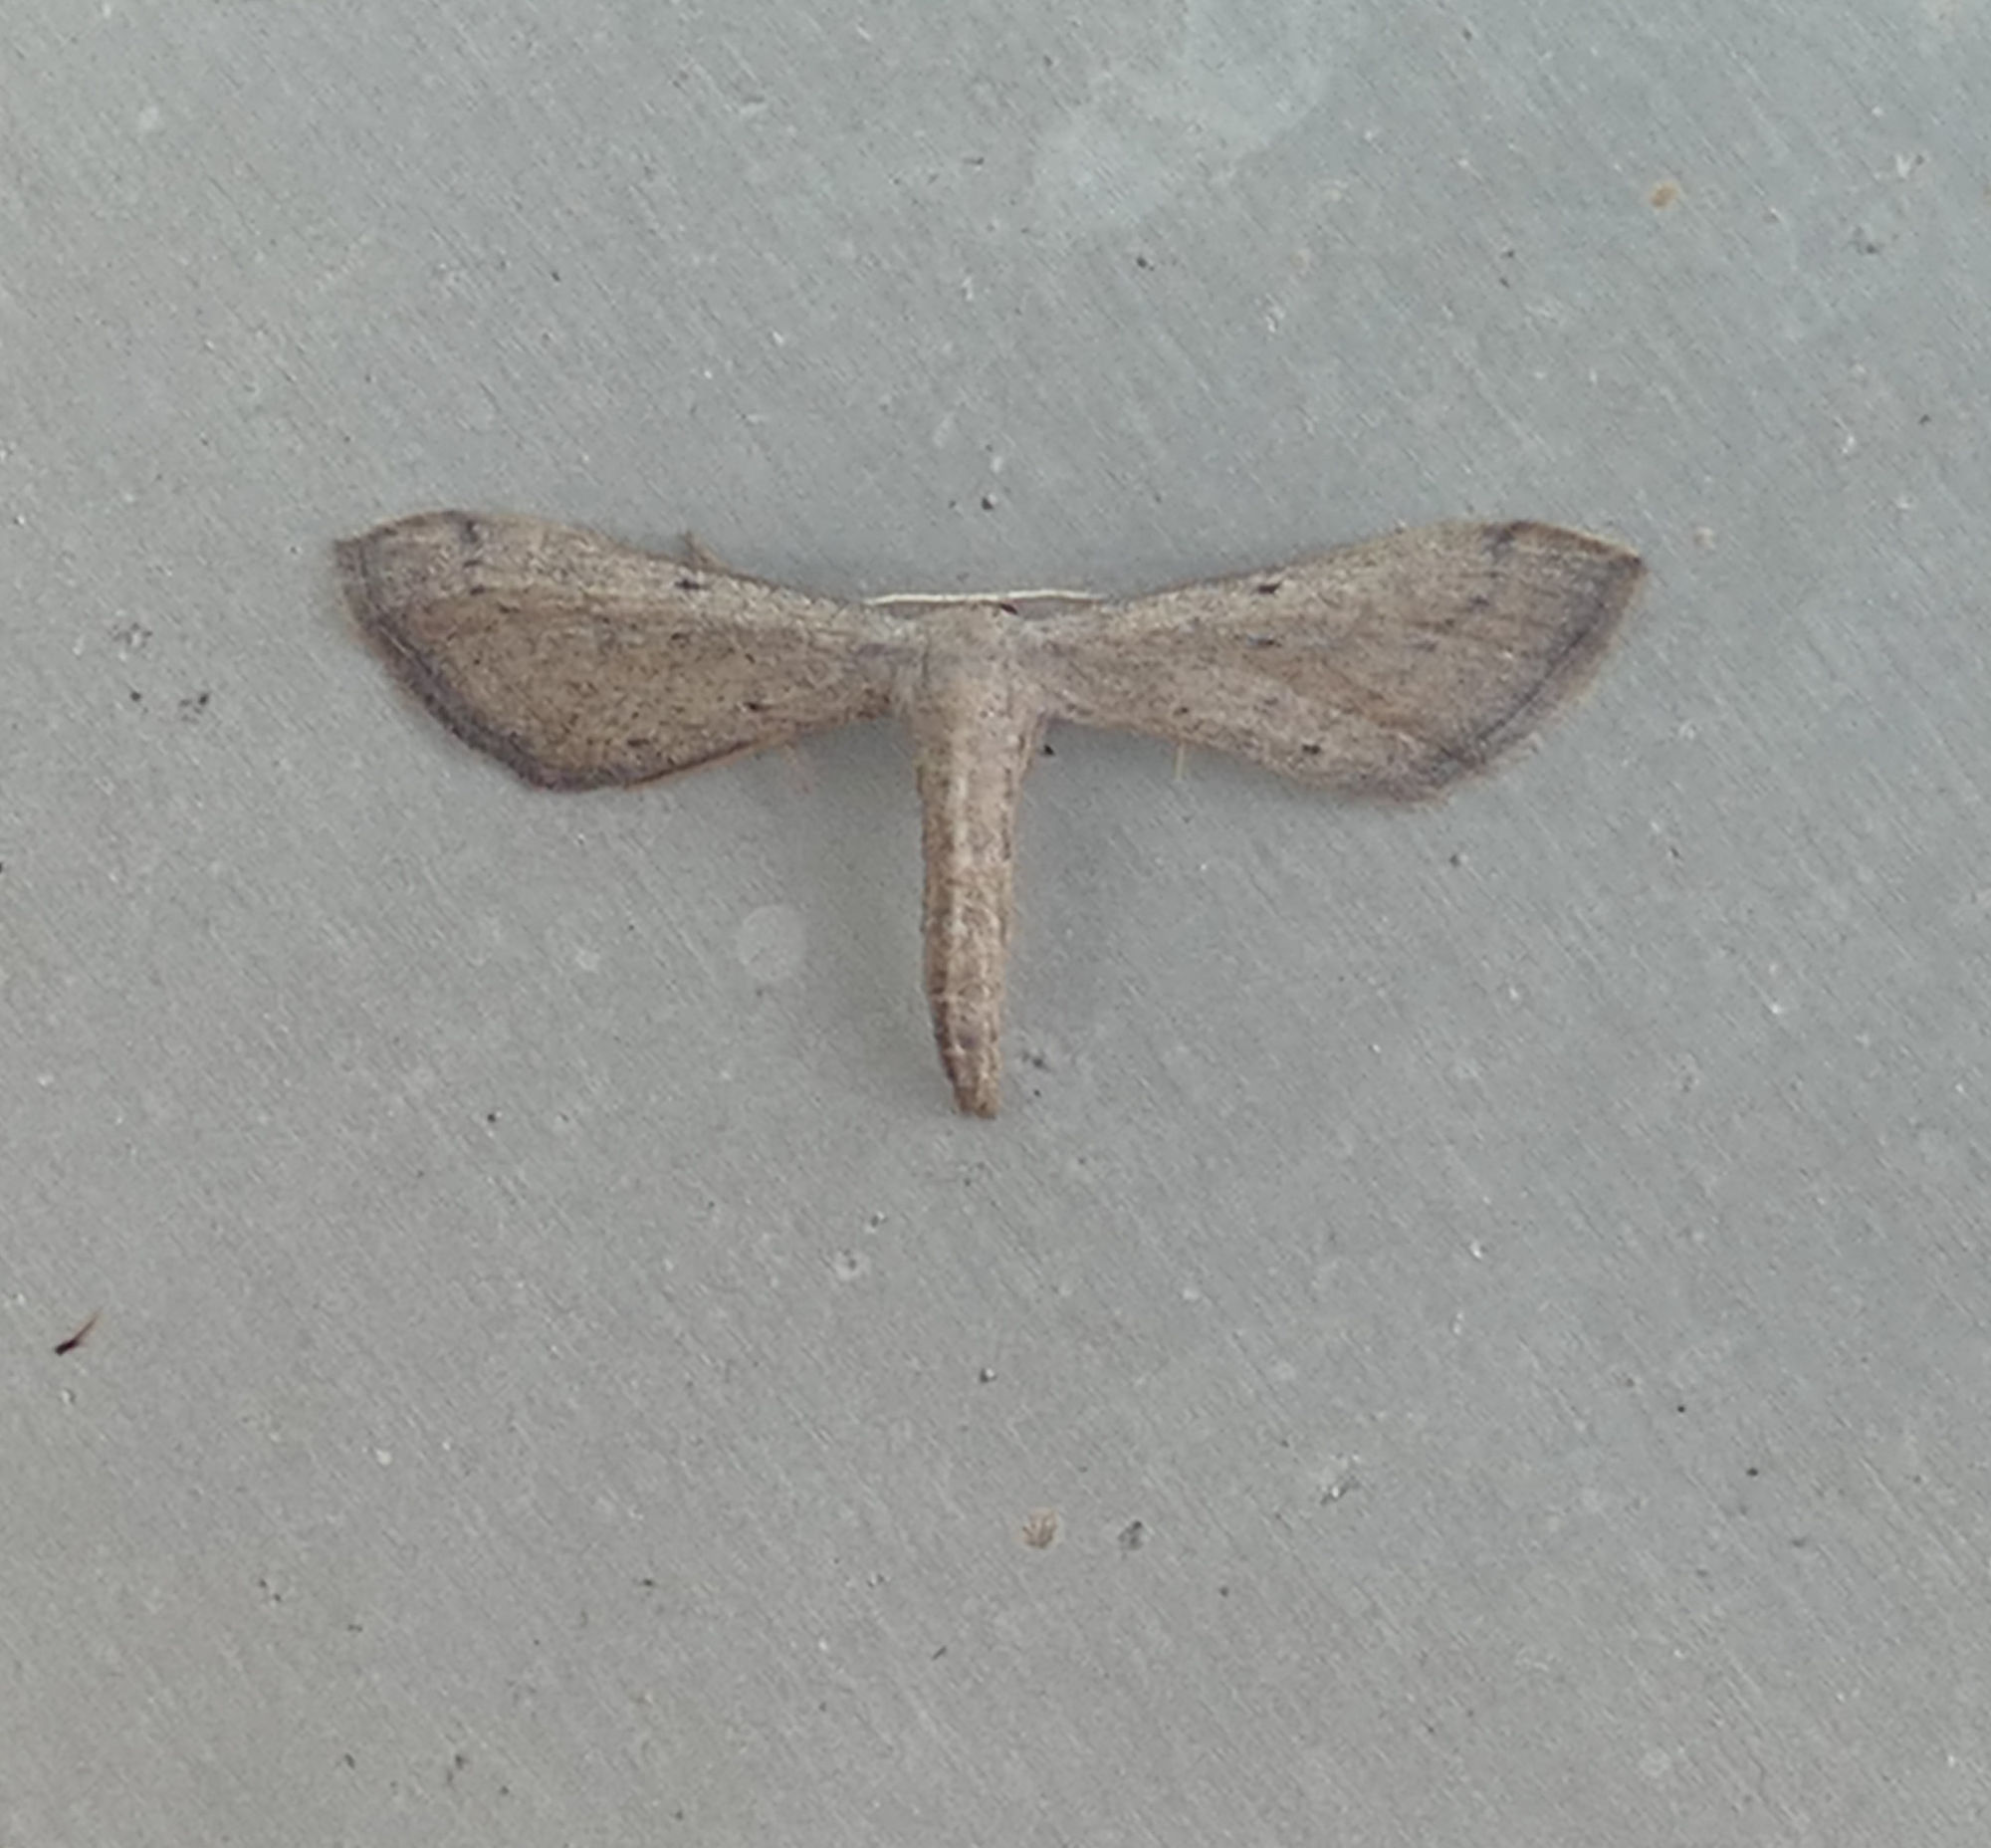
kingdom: Animalia
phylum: Arthropoda
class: Insecta
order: Lepidoptera
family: Geometridae
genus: Euacidalia
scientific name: Euacidalia sericearia
